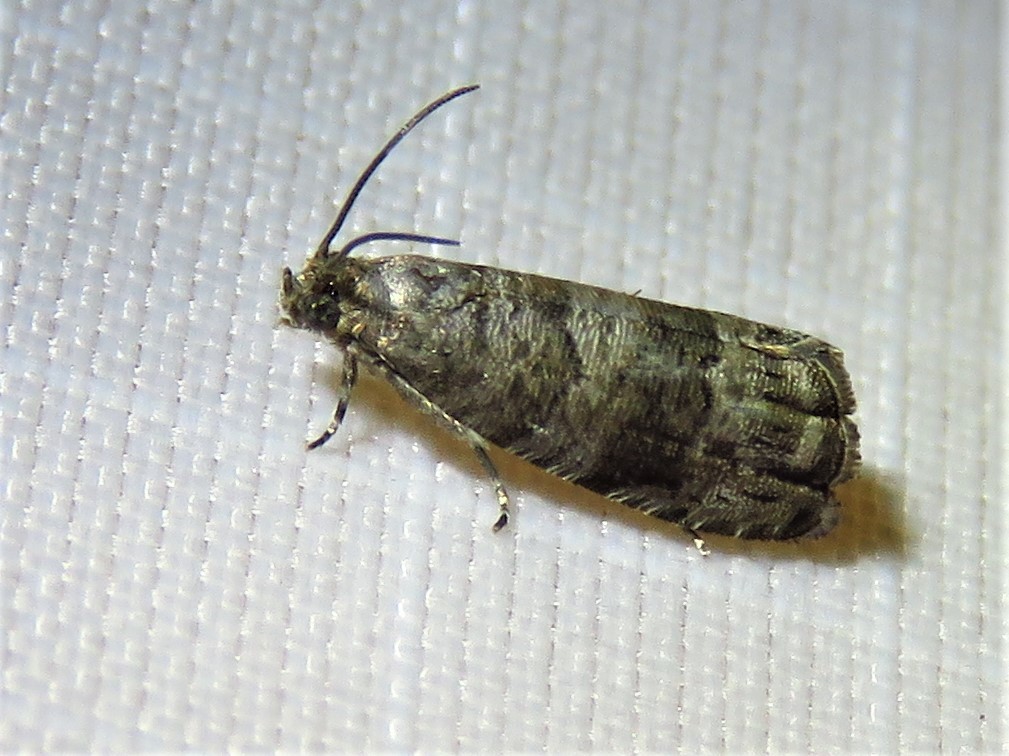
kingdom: Animalia
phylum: Arthropoda
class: Insecta
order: Lepidoptera
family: Noctuidae
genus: Aspila
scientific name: Aspila
